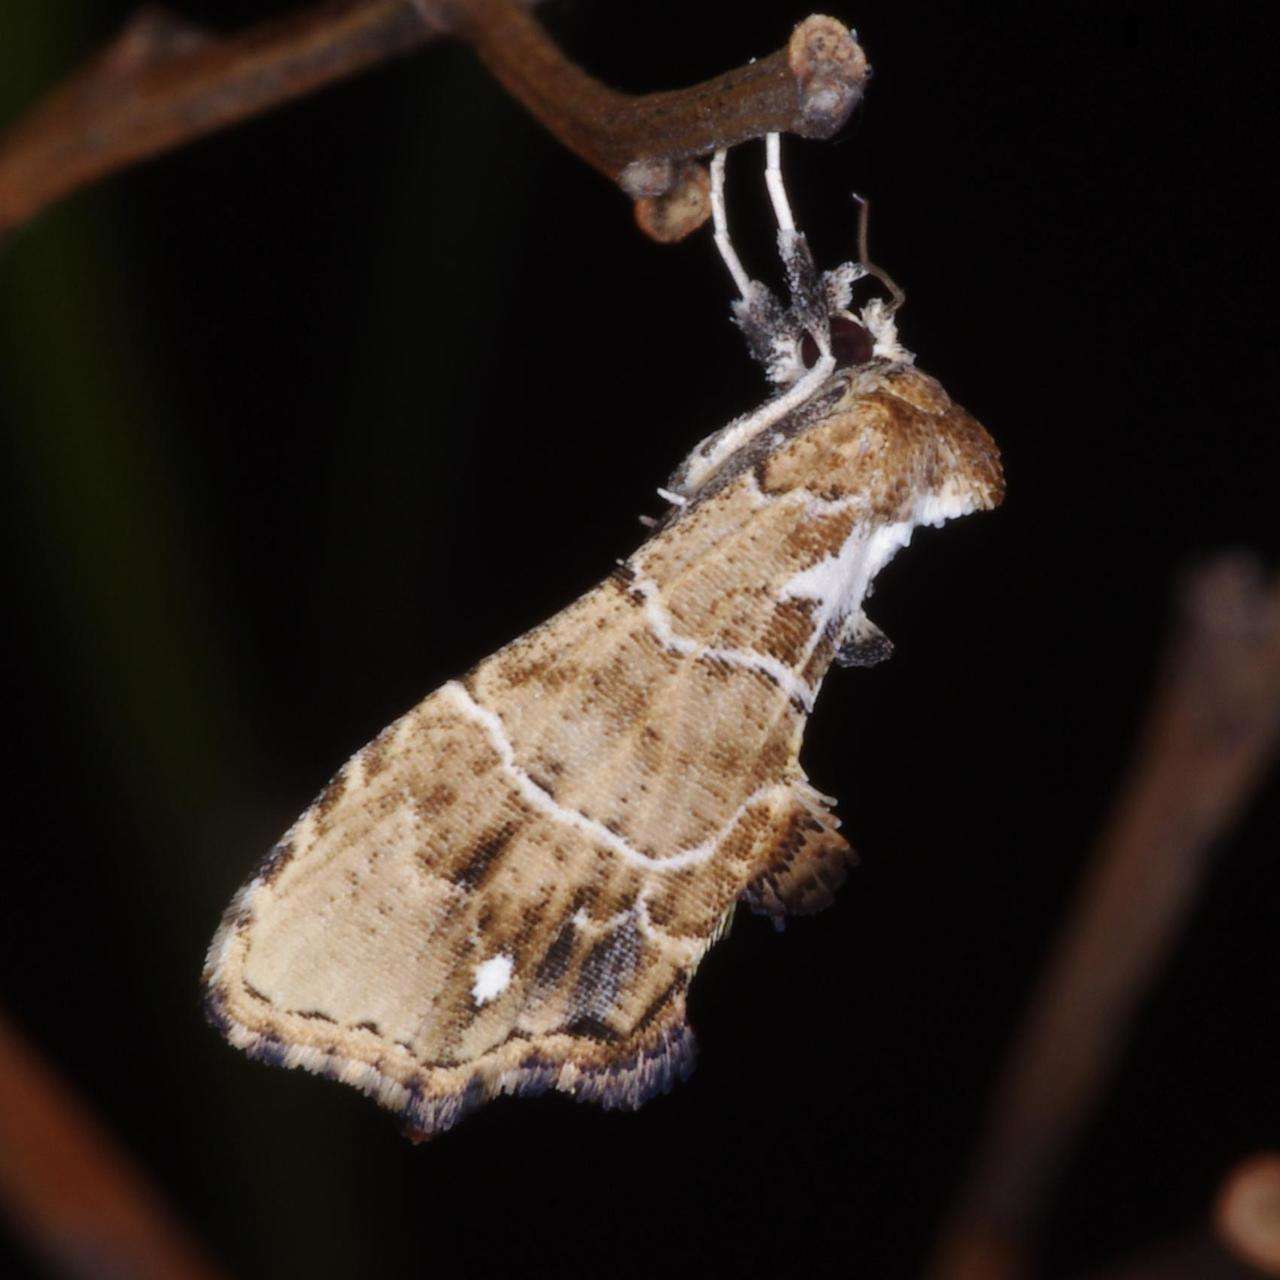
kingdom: Animalia
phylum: Arthropoda
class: Insecta
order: Lepidoptera
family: Erebidae
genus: Arrade
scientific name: Arrade leucocosmalis
